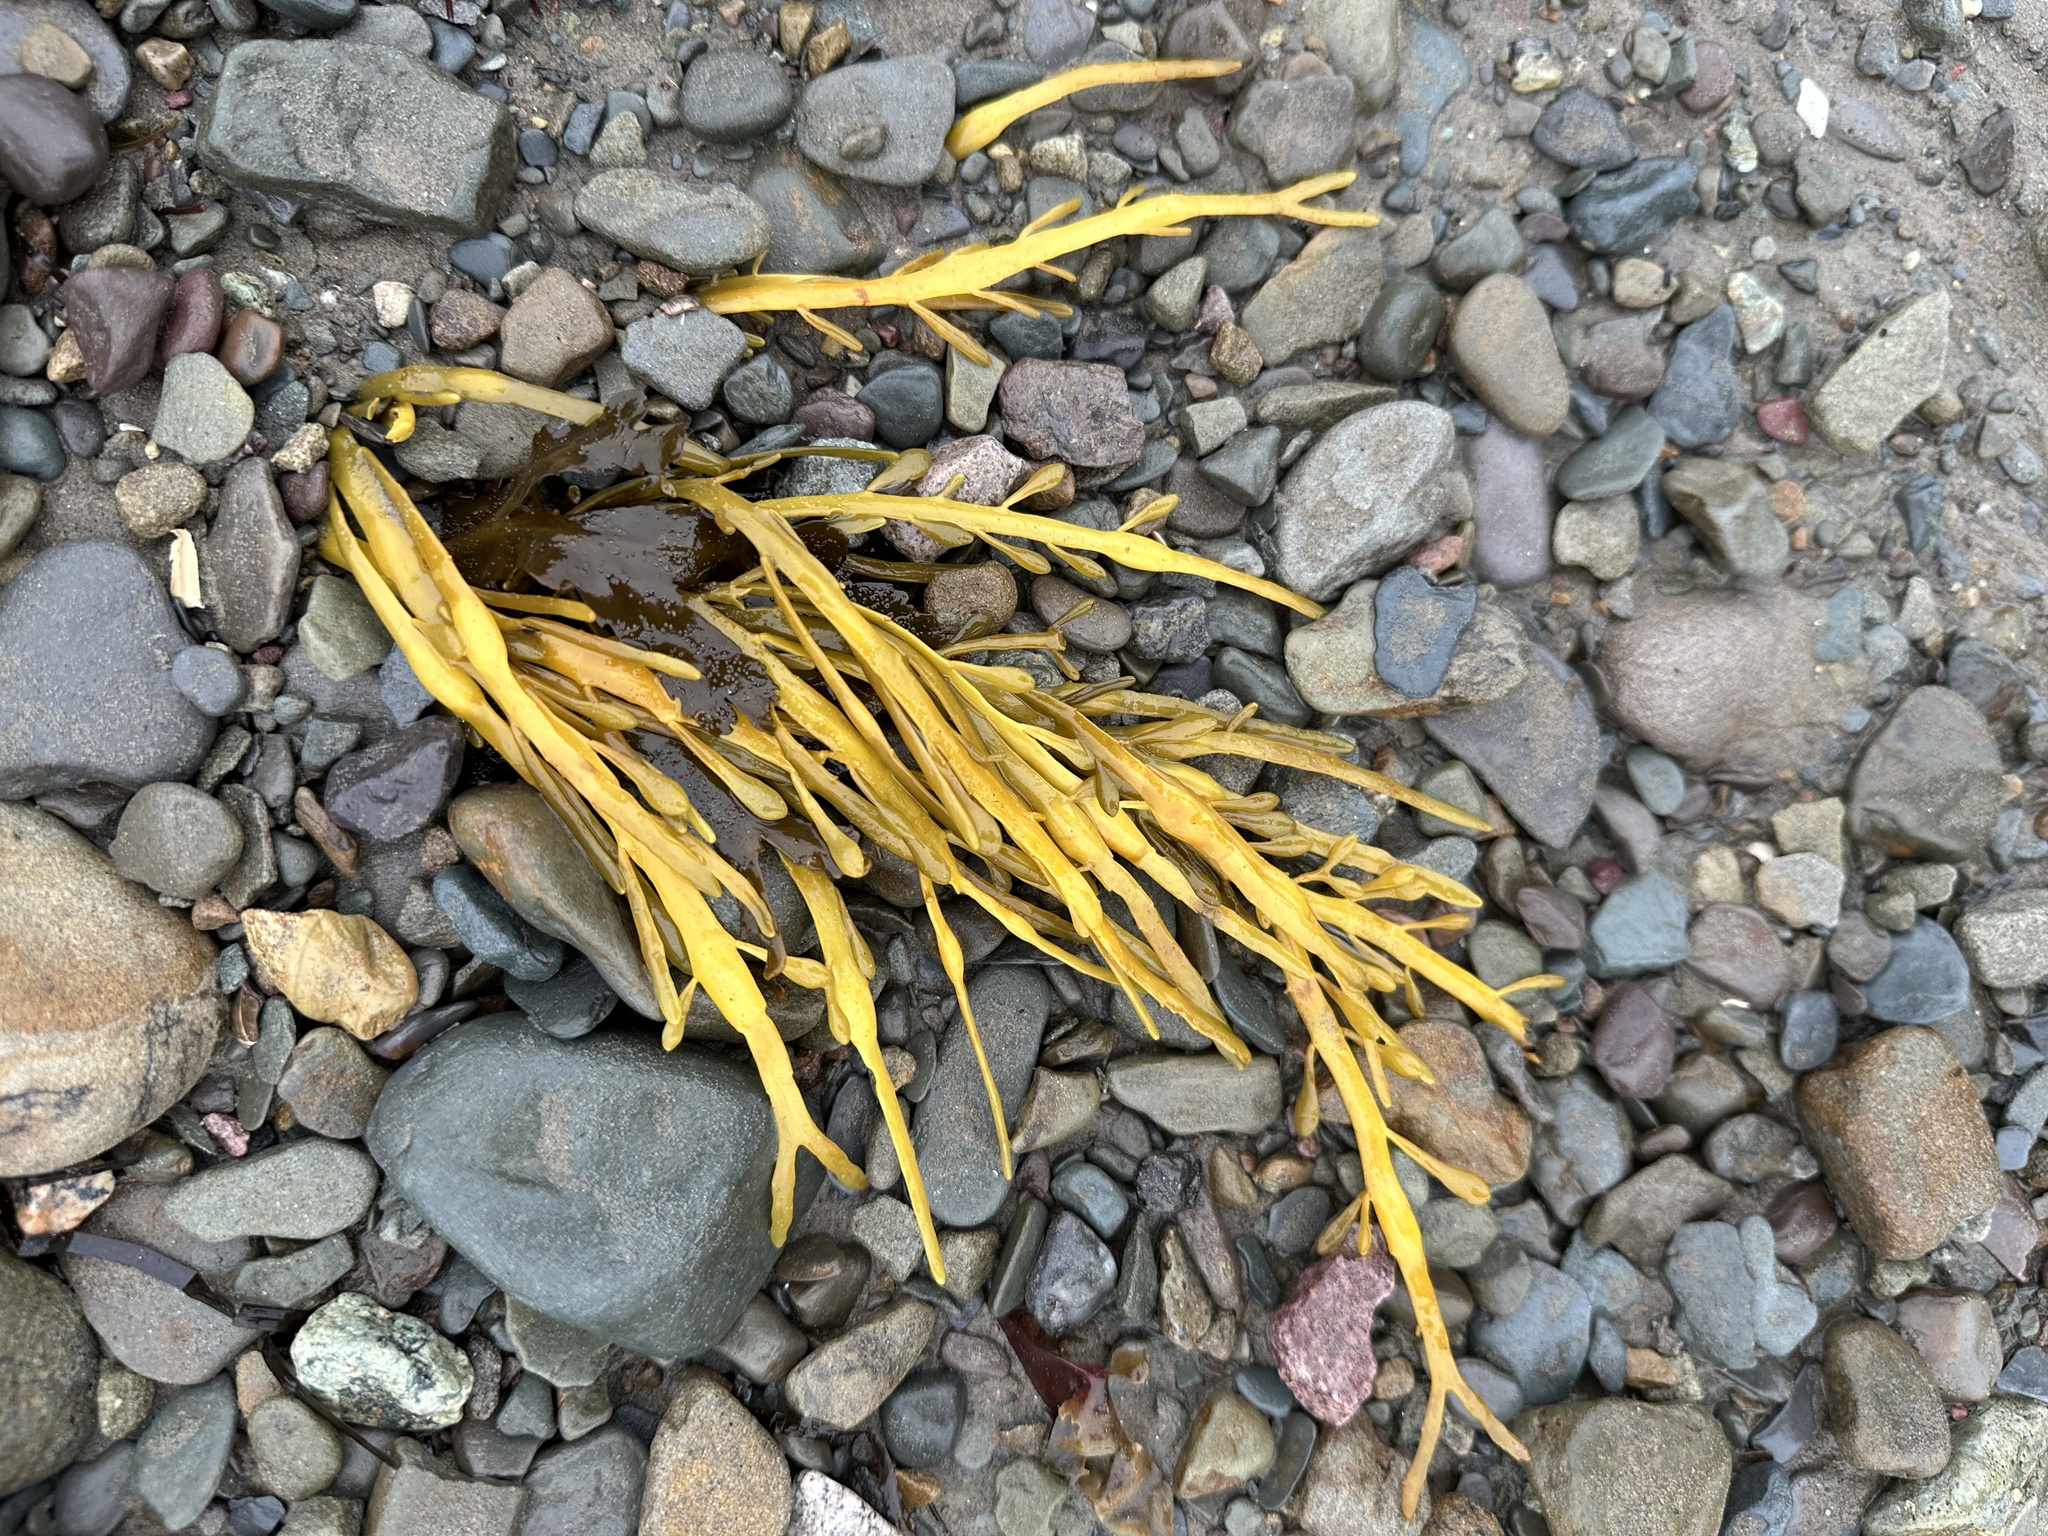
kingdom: Chromista
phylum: Ochrophyta
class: Phaeophyceae
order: Fucales
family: Fucaceae
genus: Ascophyllum
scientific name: Ascophyllum nodosum
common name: Knotted wrack
